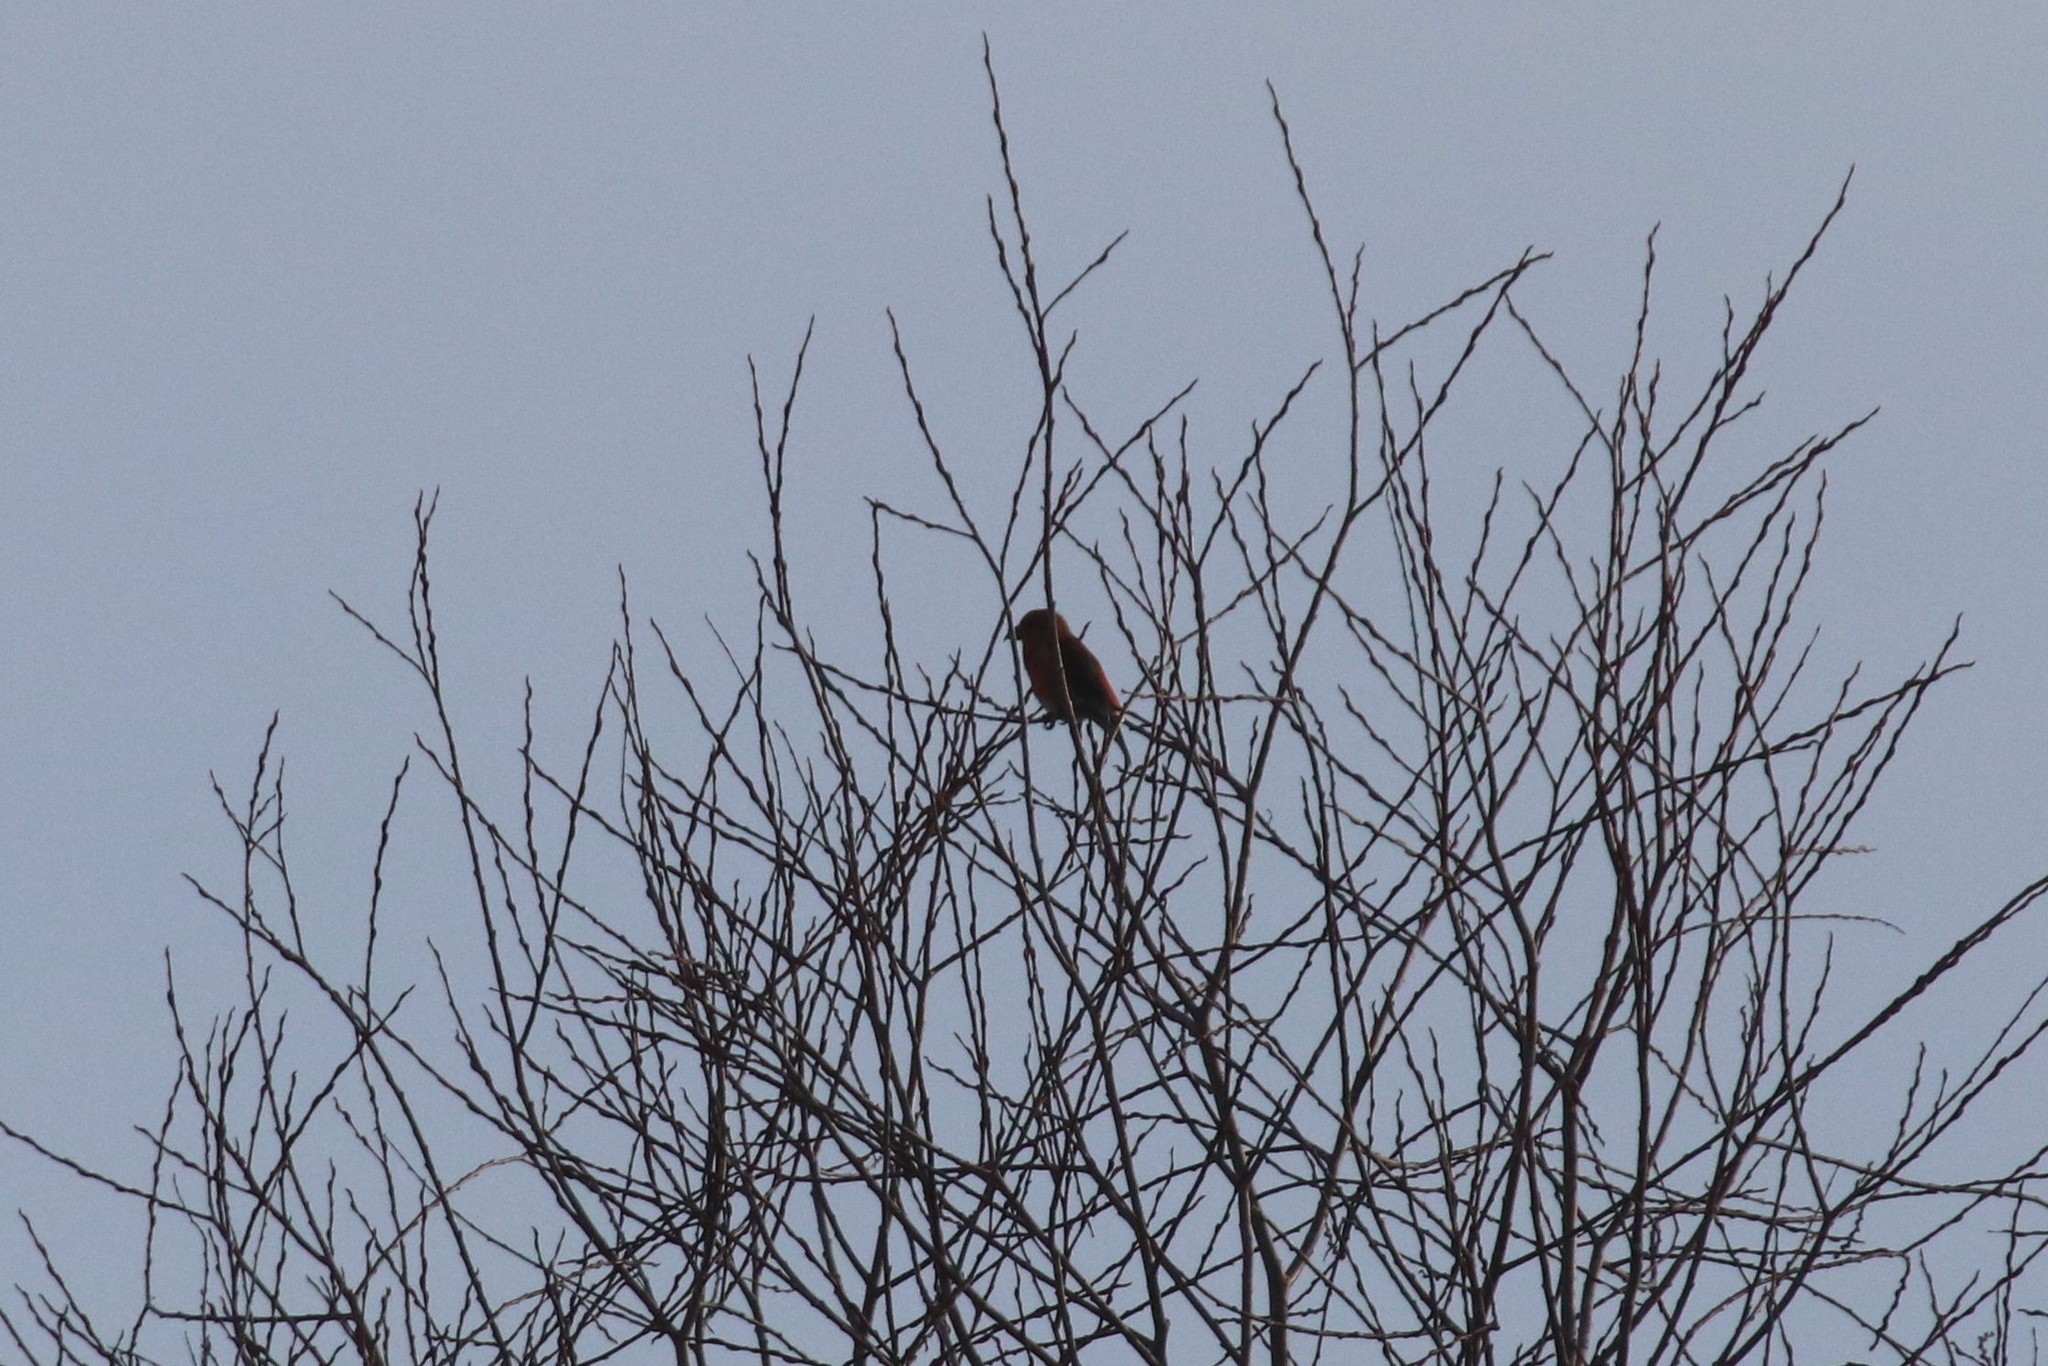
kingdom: Animalia
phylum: Chordata
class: Aves
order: Passeriformes
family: Fringillidae
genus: Loxia
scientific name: Loxia curvirostra
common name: Red crossbill
